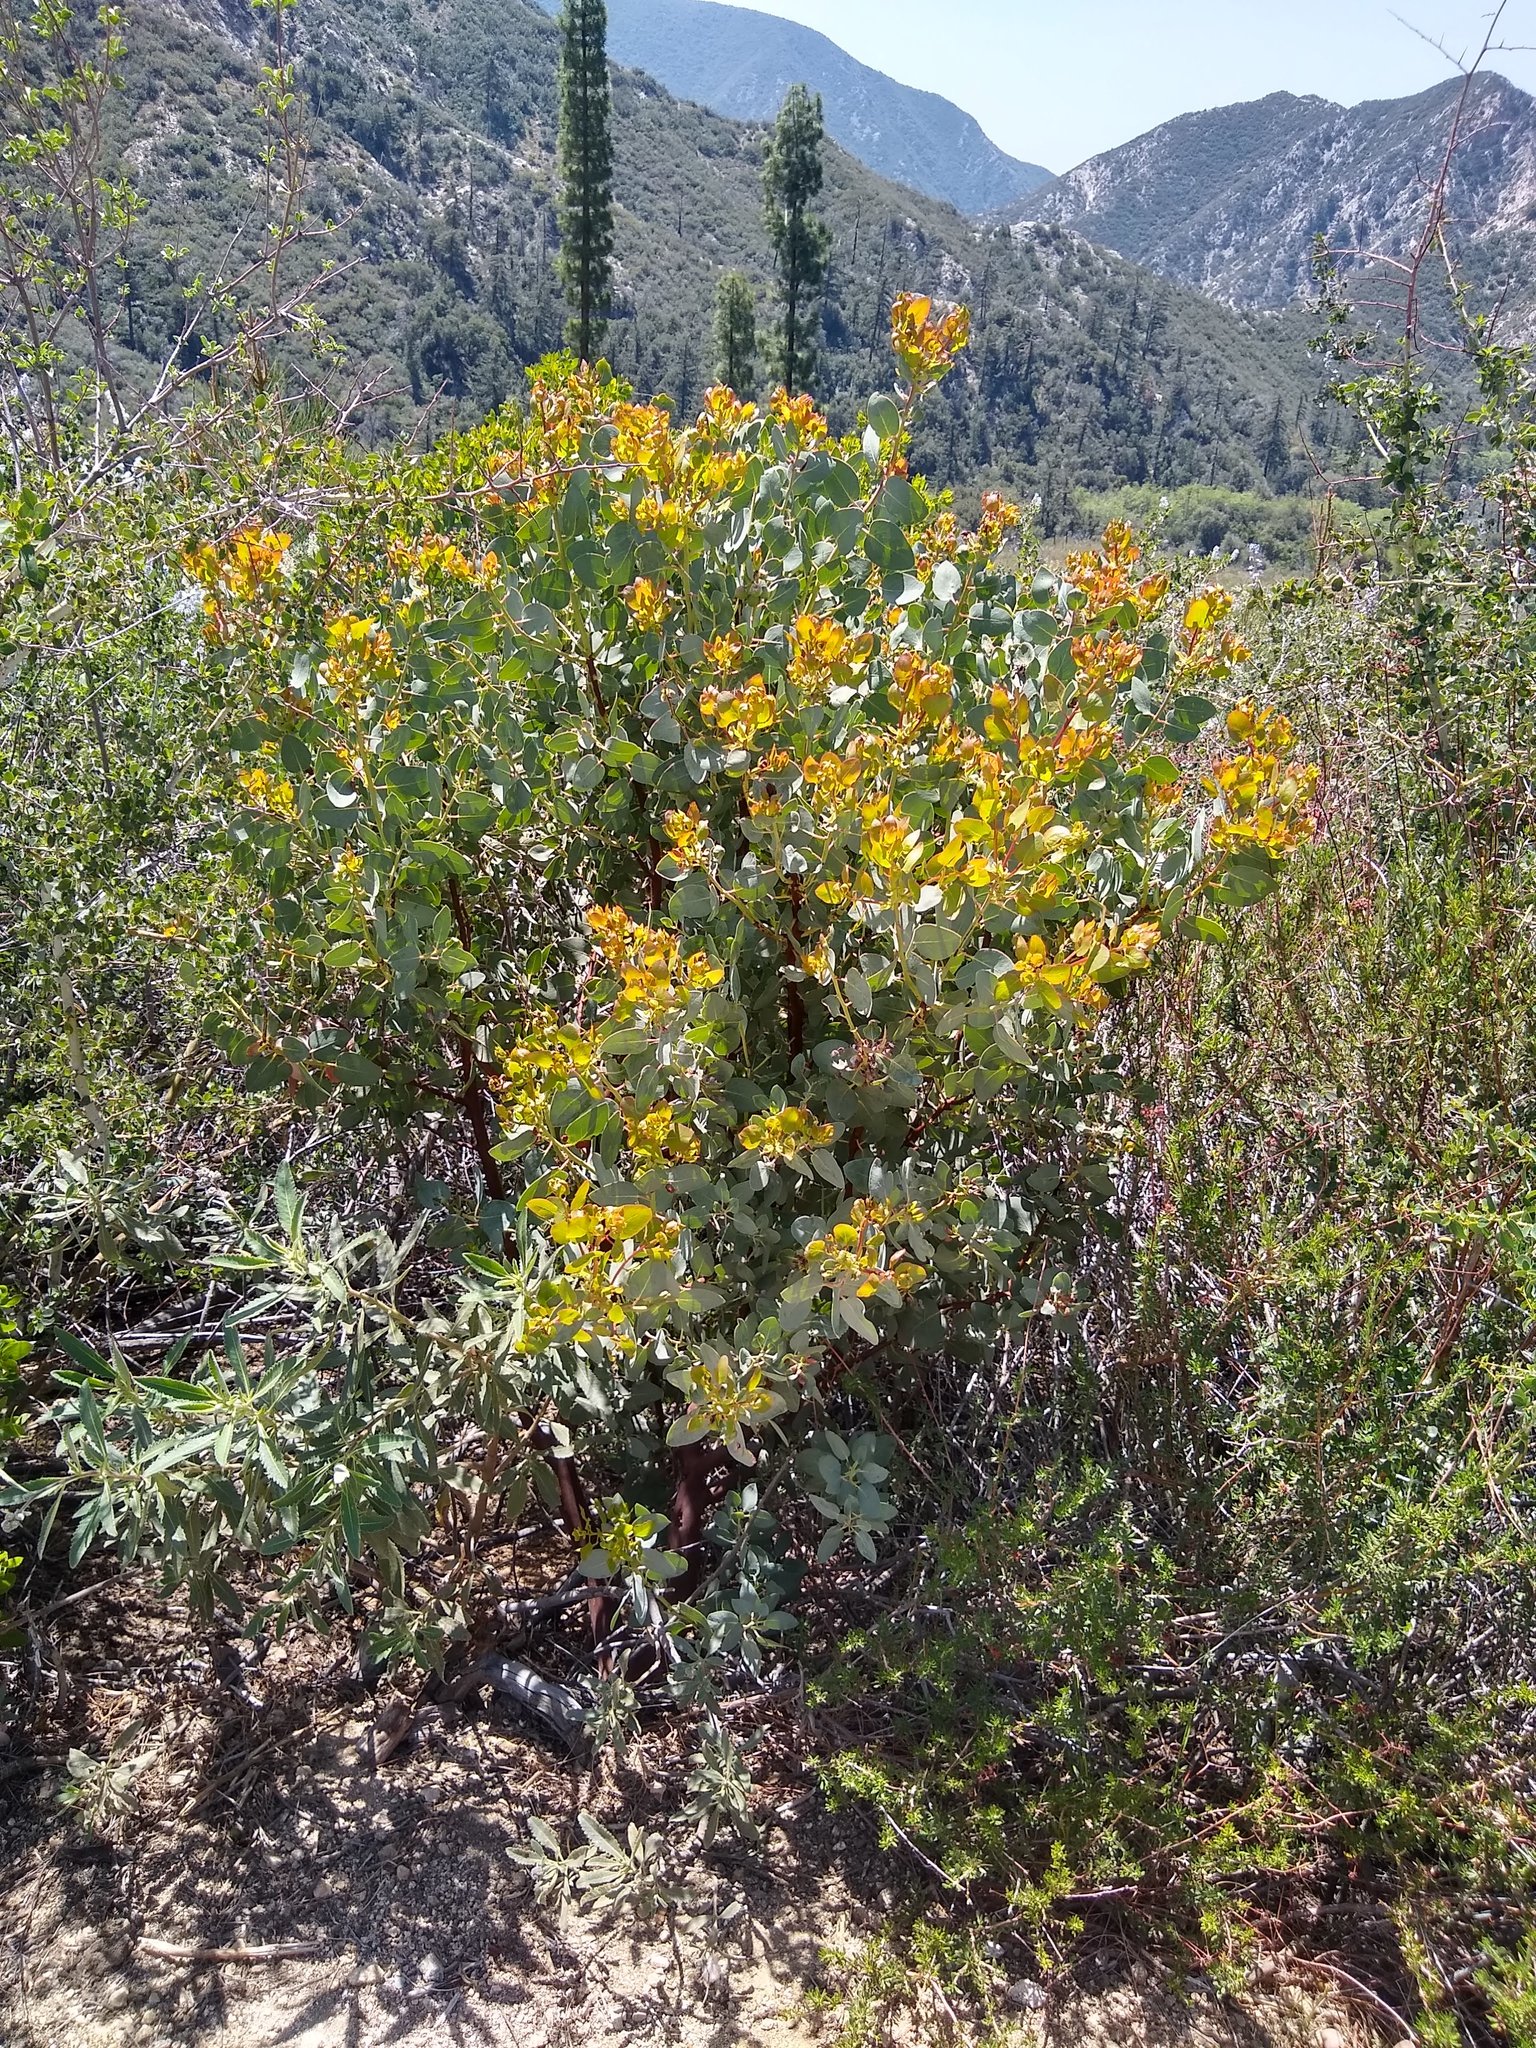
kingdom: Plantae
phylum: Tracheophyta
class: Magnoliopsida
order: Ericales
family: Ericaceae
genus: Arctostaphylos
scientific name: Arctostaphylos glauca
